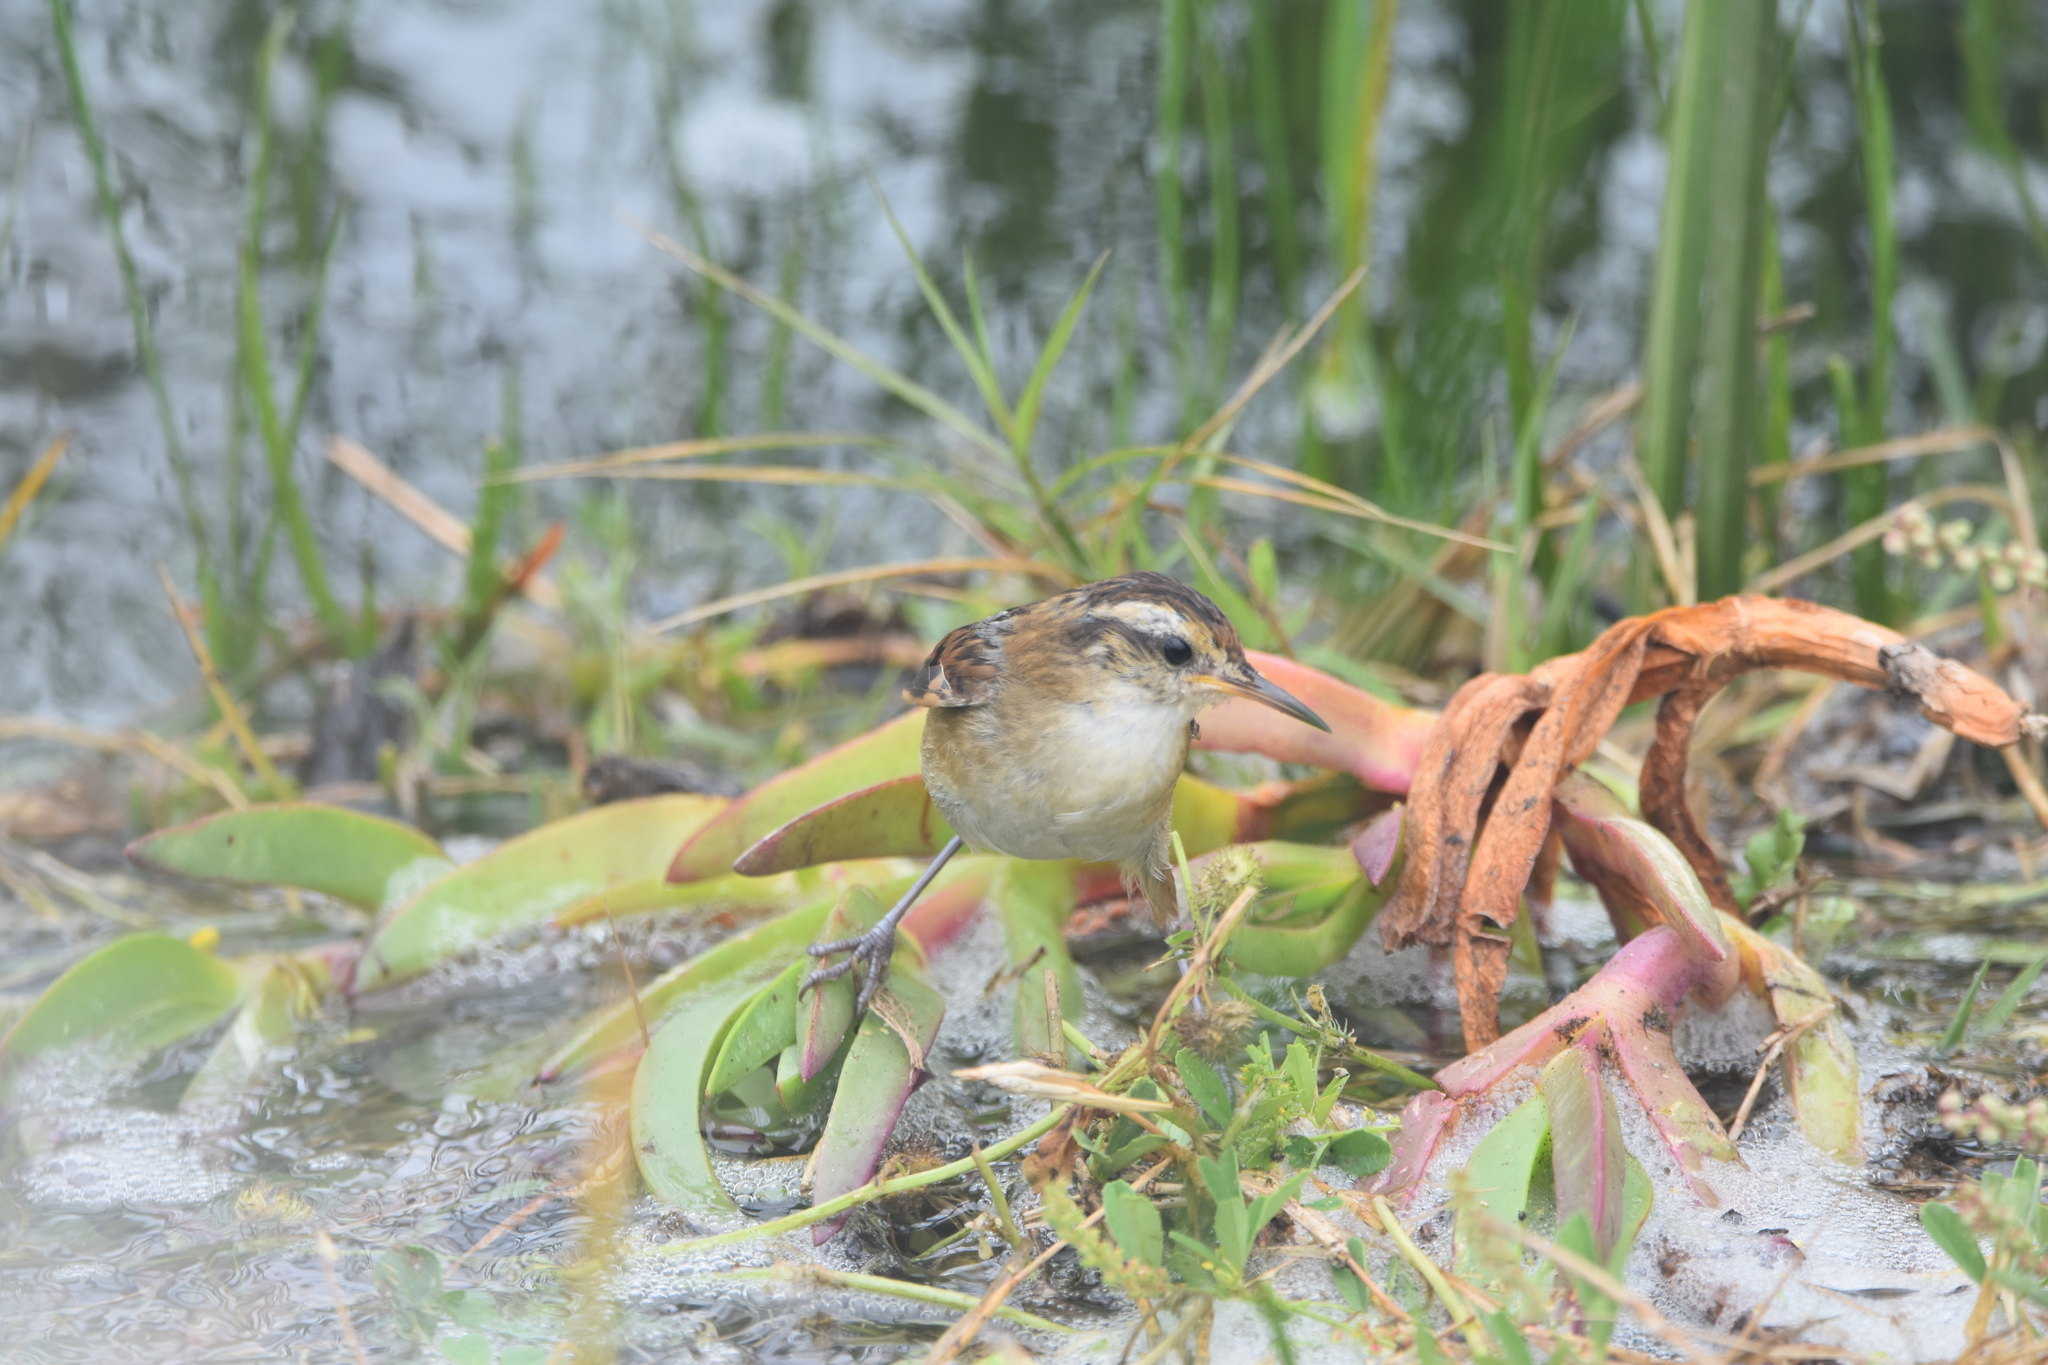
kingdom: Animalia
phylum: Chordata
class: Aves
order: Passeriformes
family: Furnariidae
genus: Phleocryptes
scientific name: Phleocryptes melanops
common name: Wren-like rushbird
